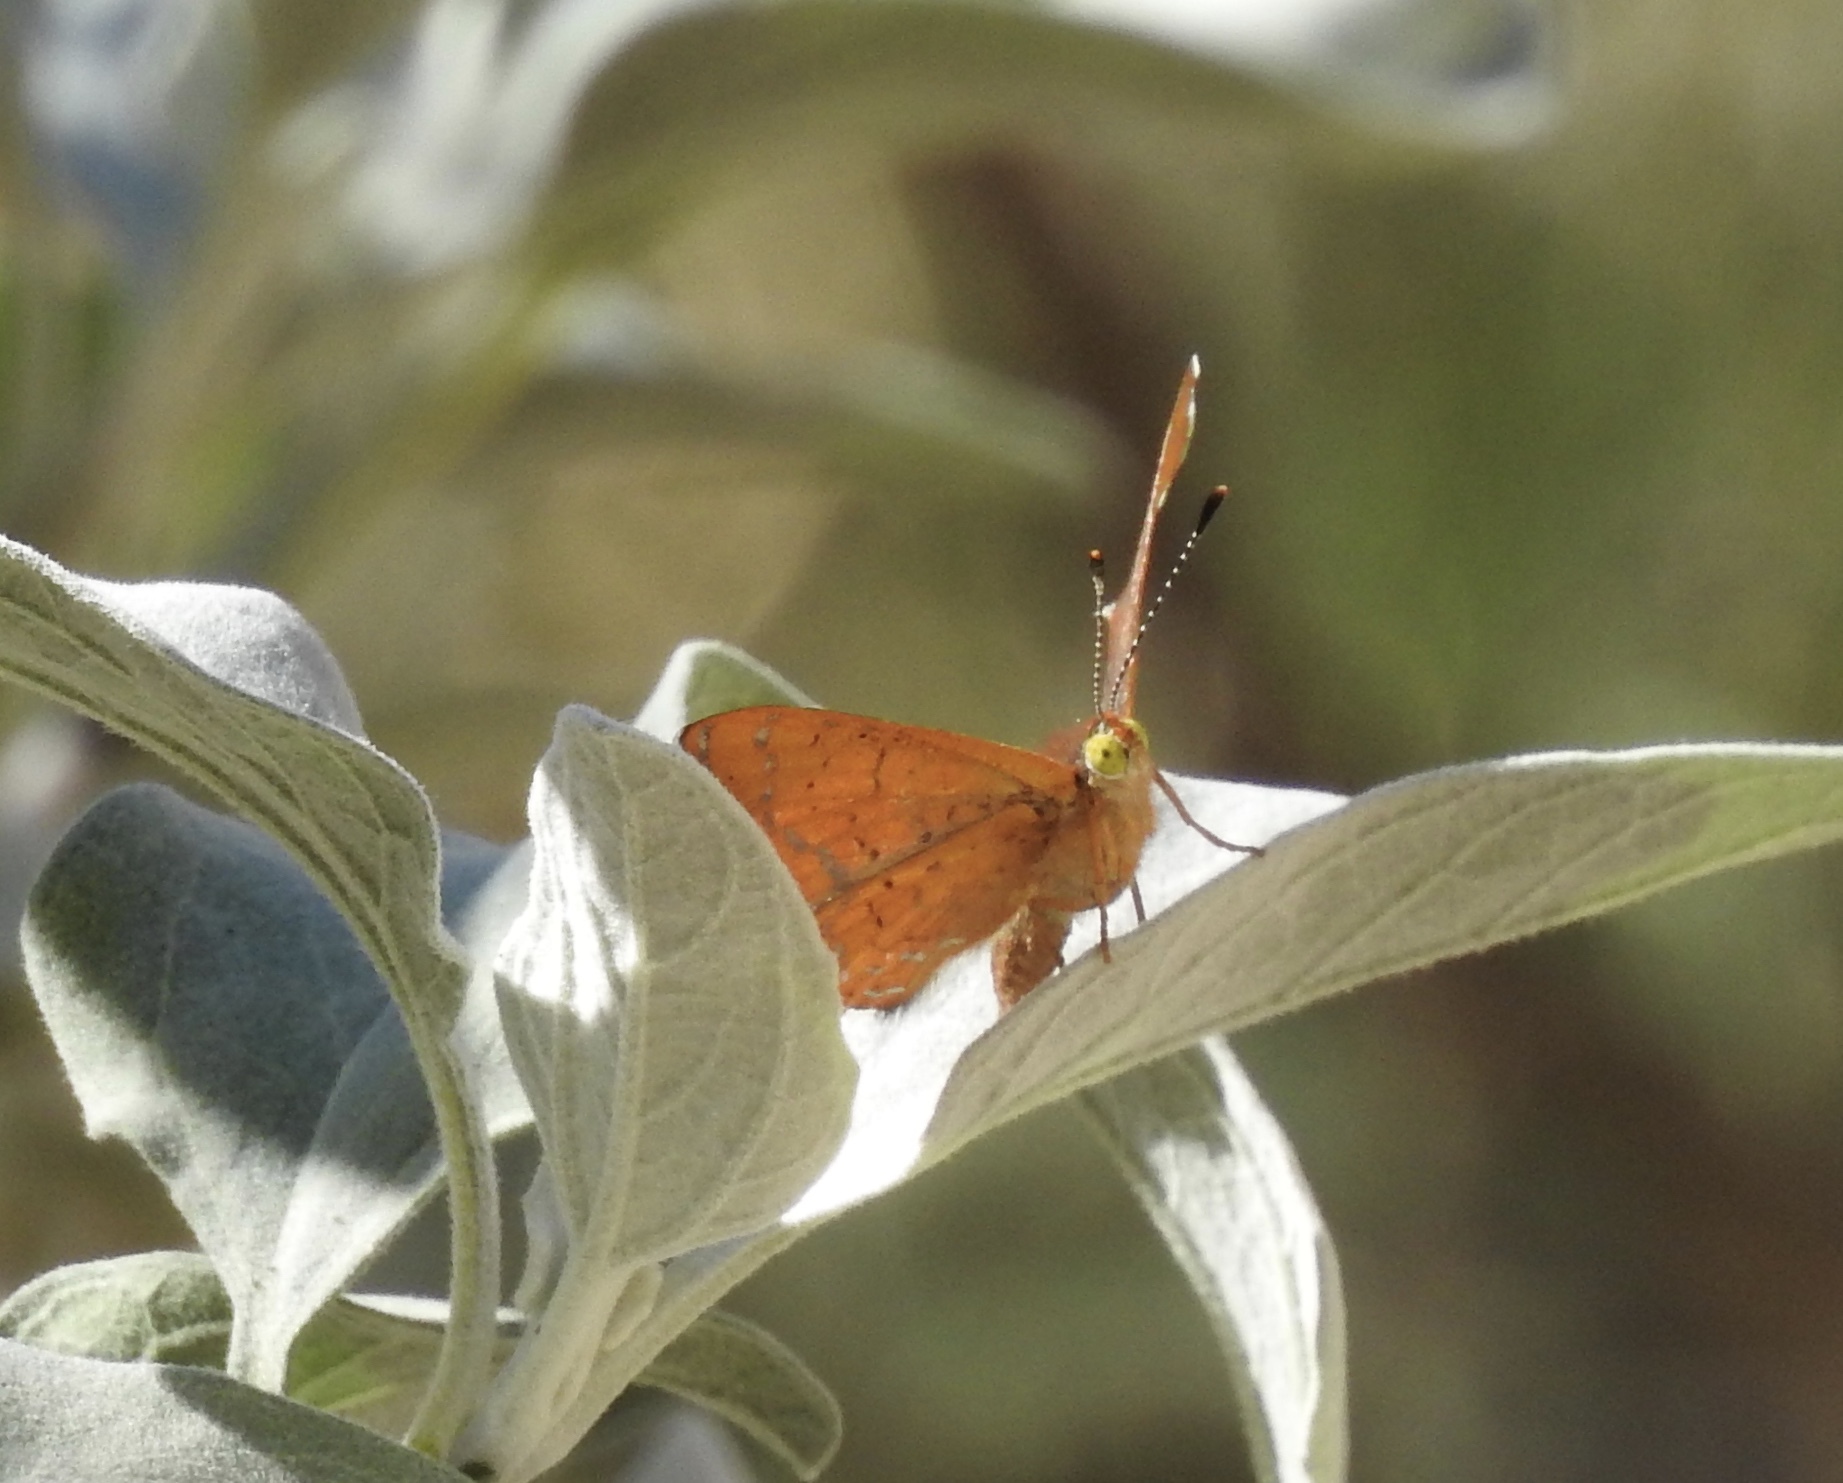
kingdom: Animalia
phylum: Arthropoda
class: Insecta
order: Lepidoptera
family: Lycaenidae
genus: Emesis
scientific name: Emesis wrighti
